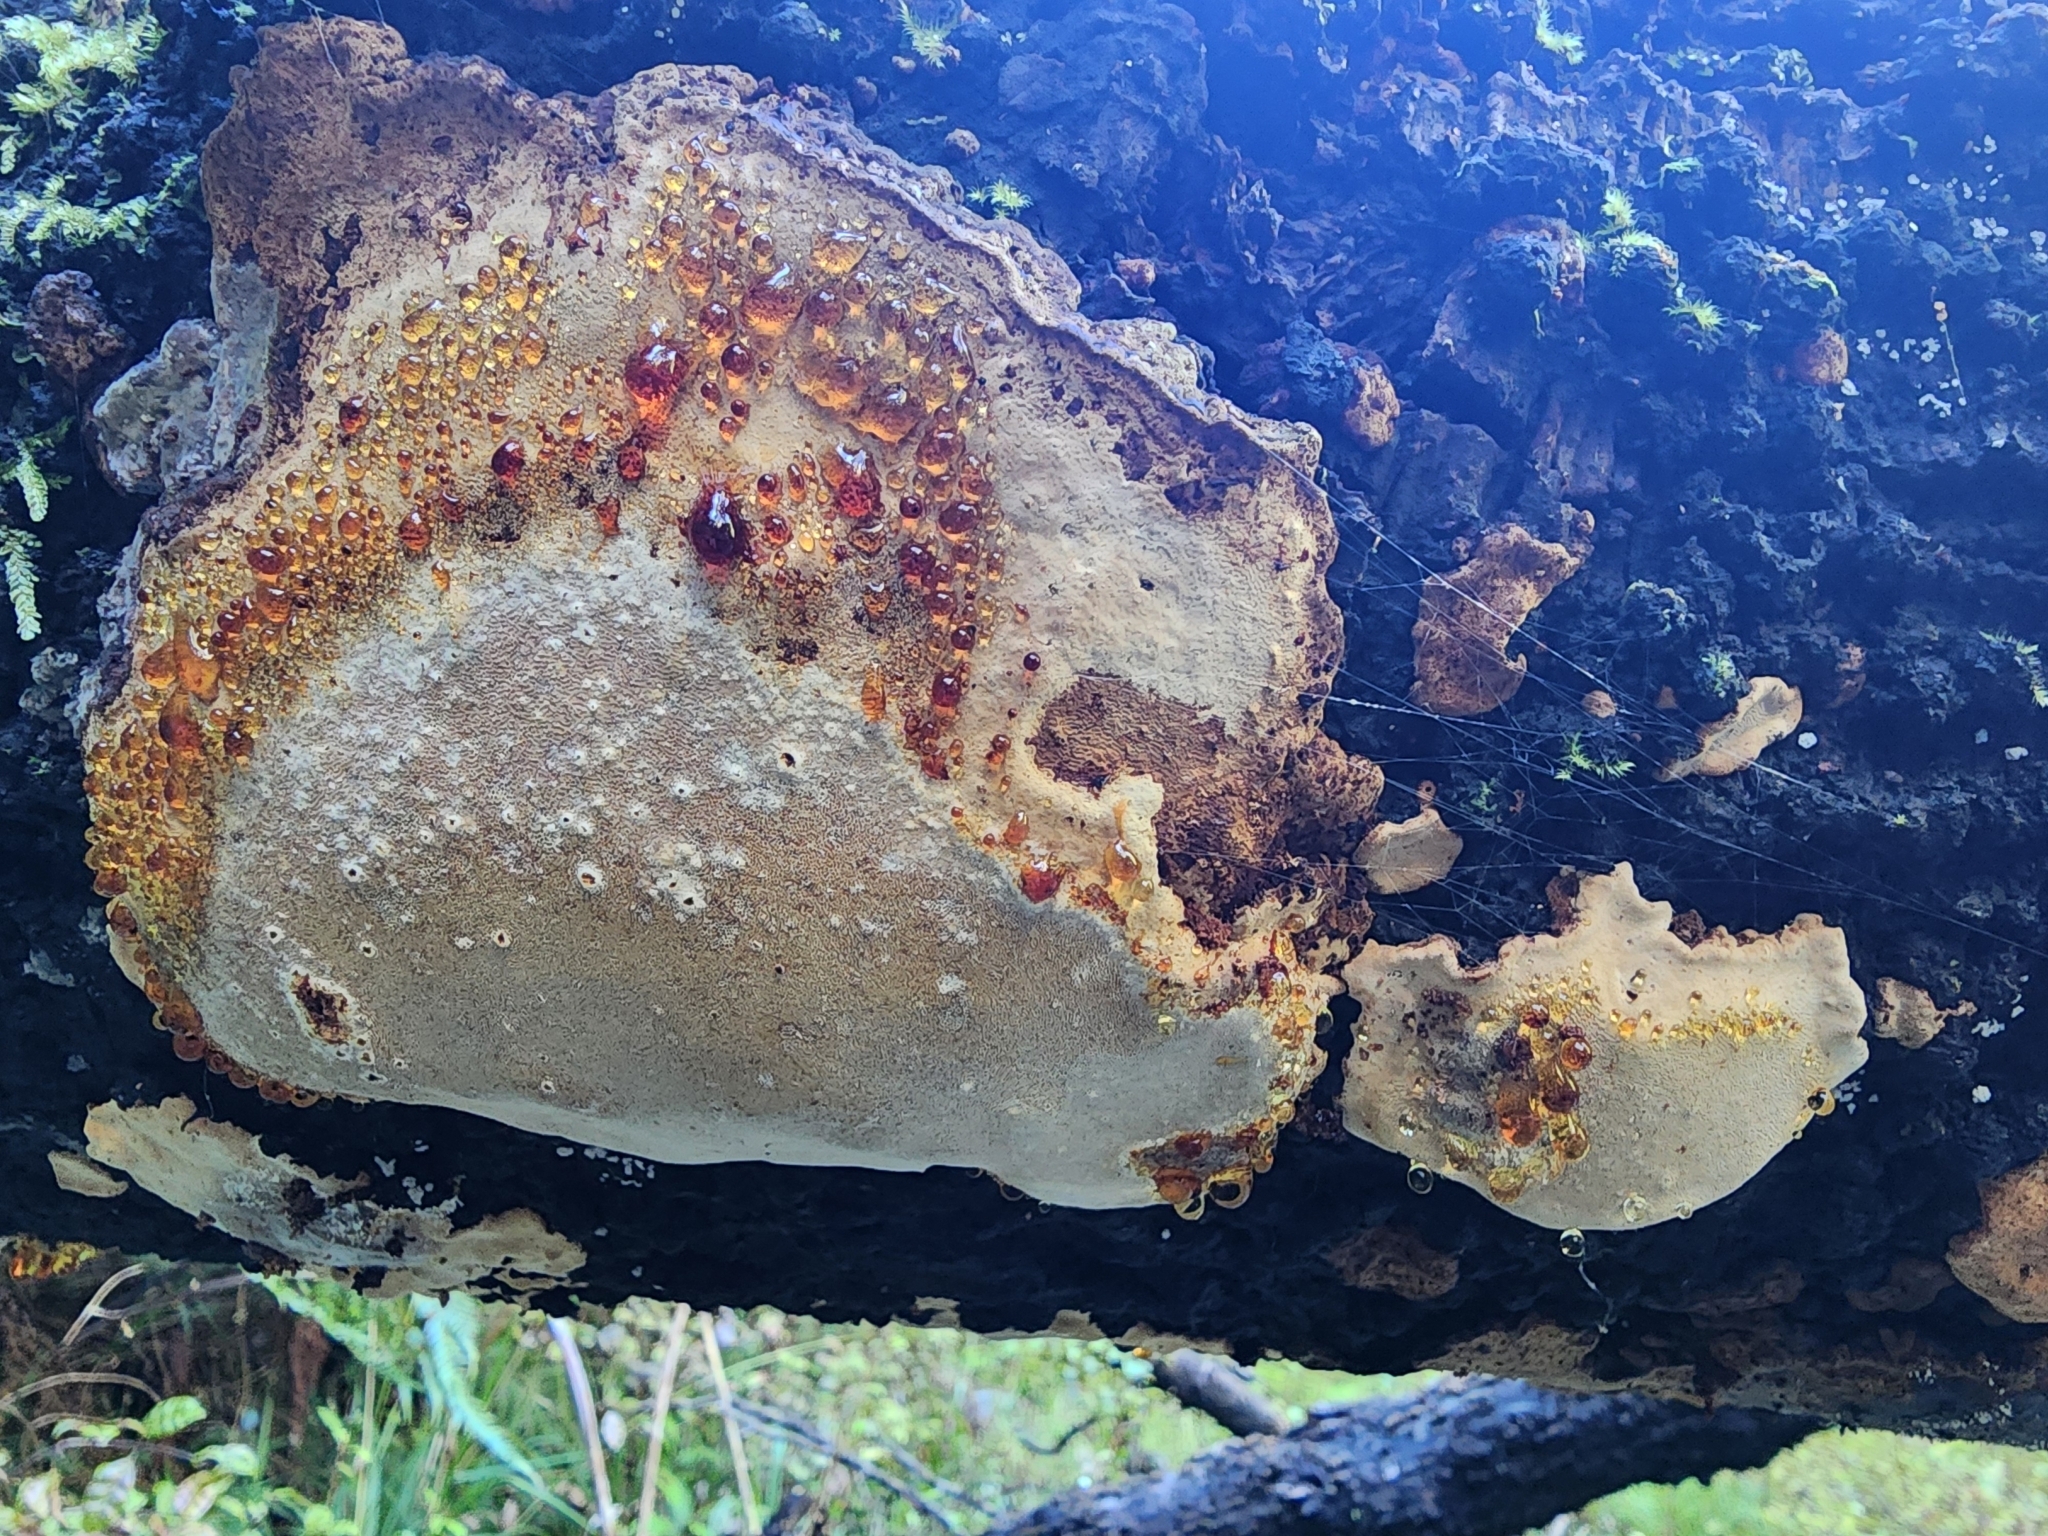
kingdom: Fungi
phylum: Basidiomycota
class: Agaricomycetes
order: Polyporales
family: Polyporaceae
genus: Australoporus
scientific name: Australoporus tasmanicus
